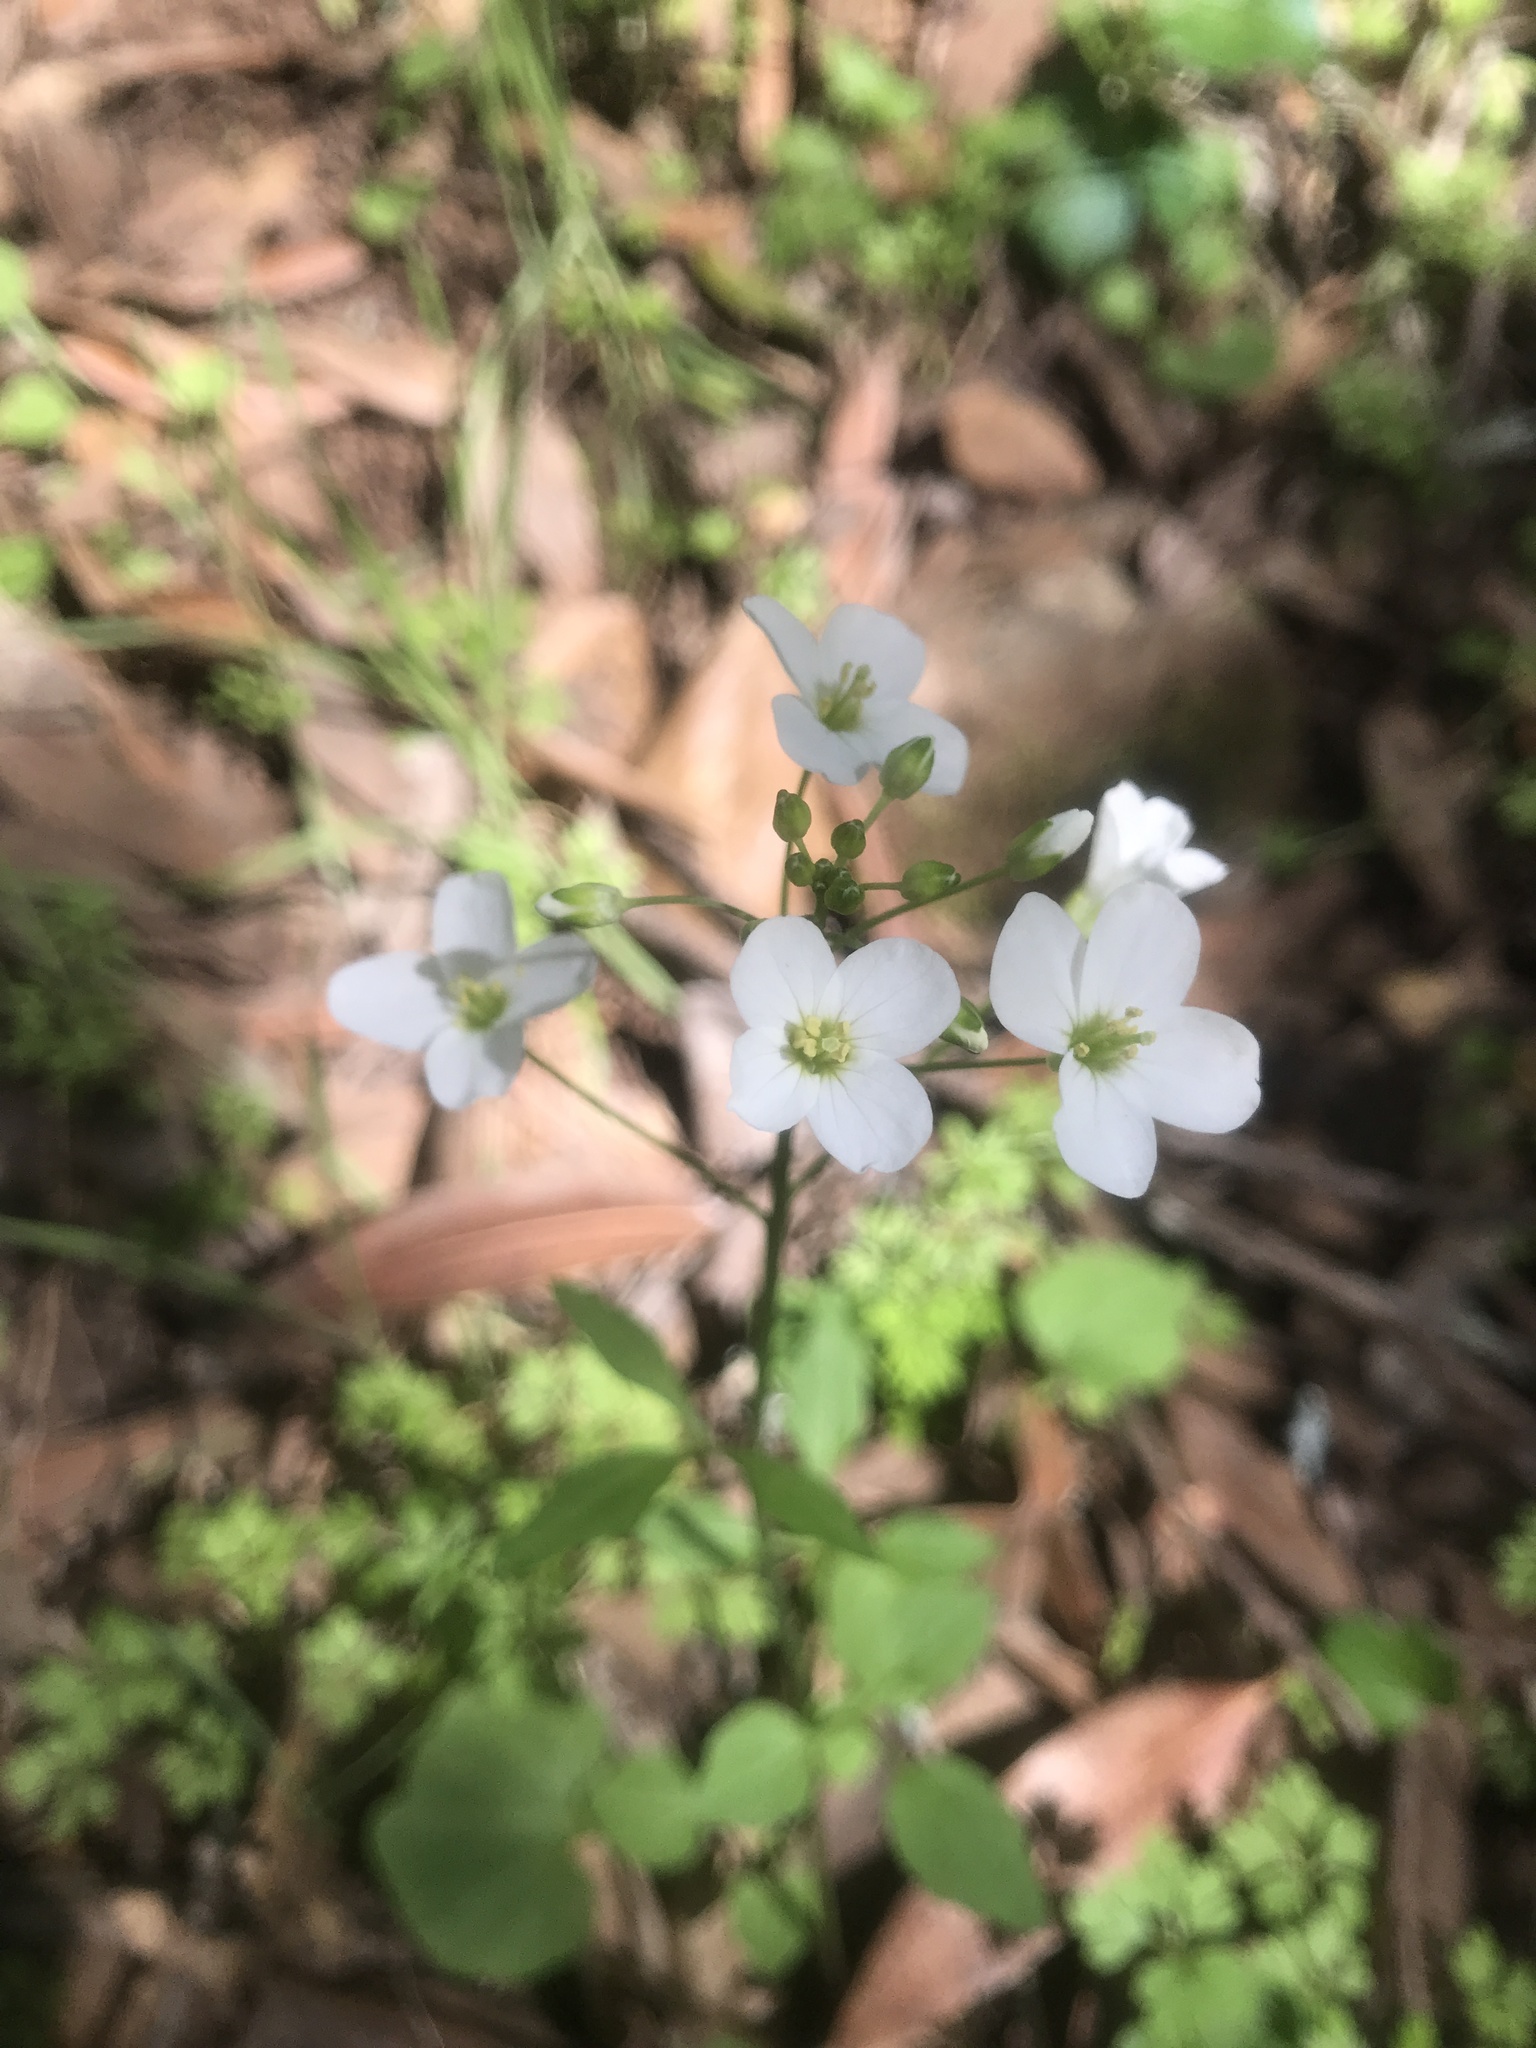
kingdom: Plantae
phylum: Tracheophyta
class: Magnoliopsida
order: Brassicales
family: Brassicaceae
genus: Cardamine
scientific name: Cardamine californica
